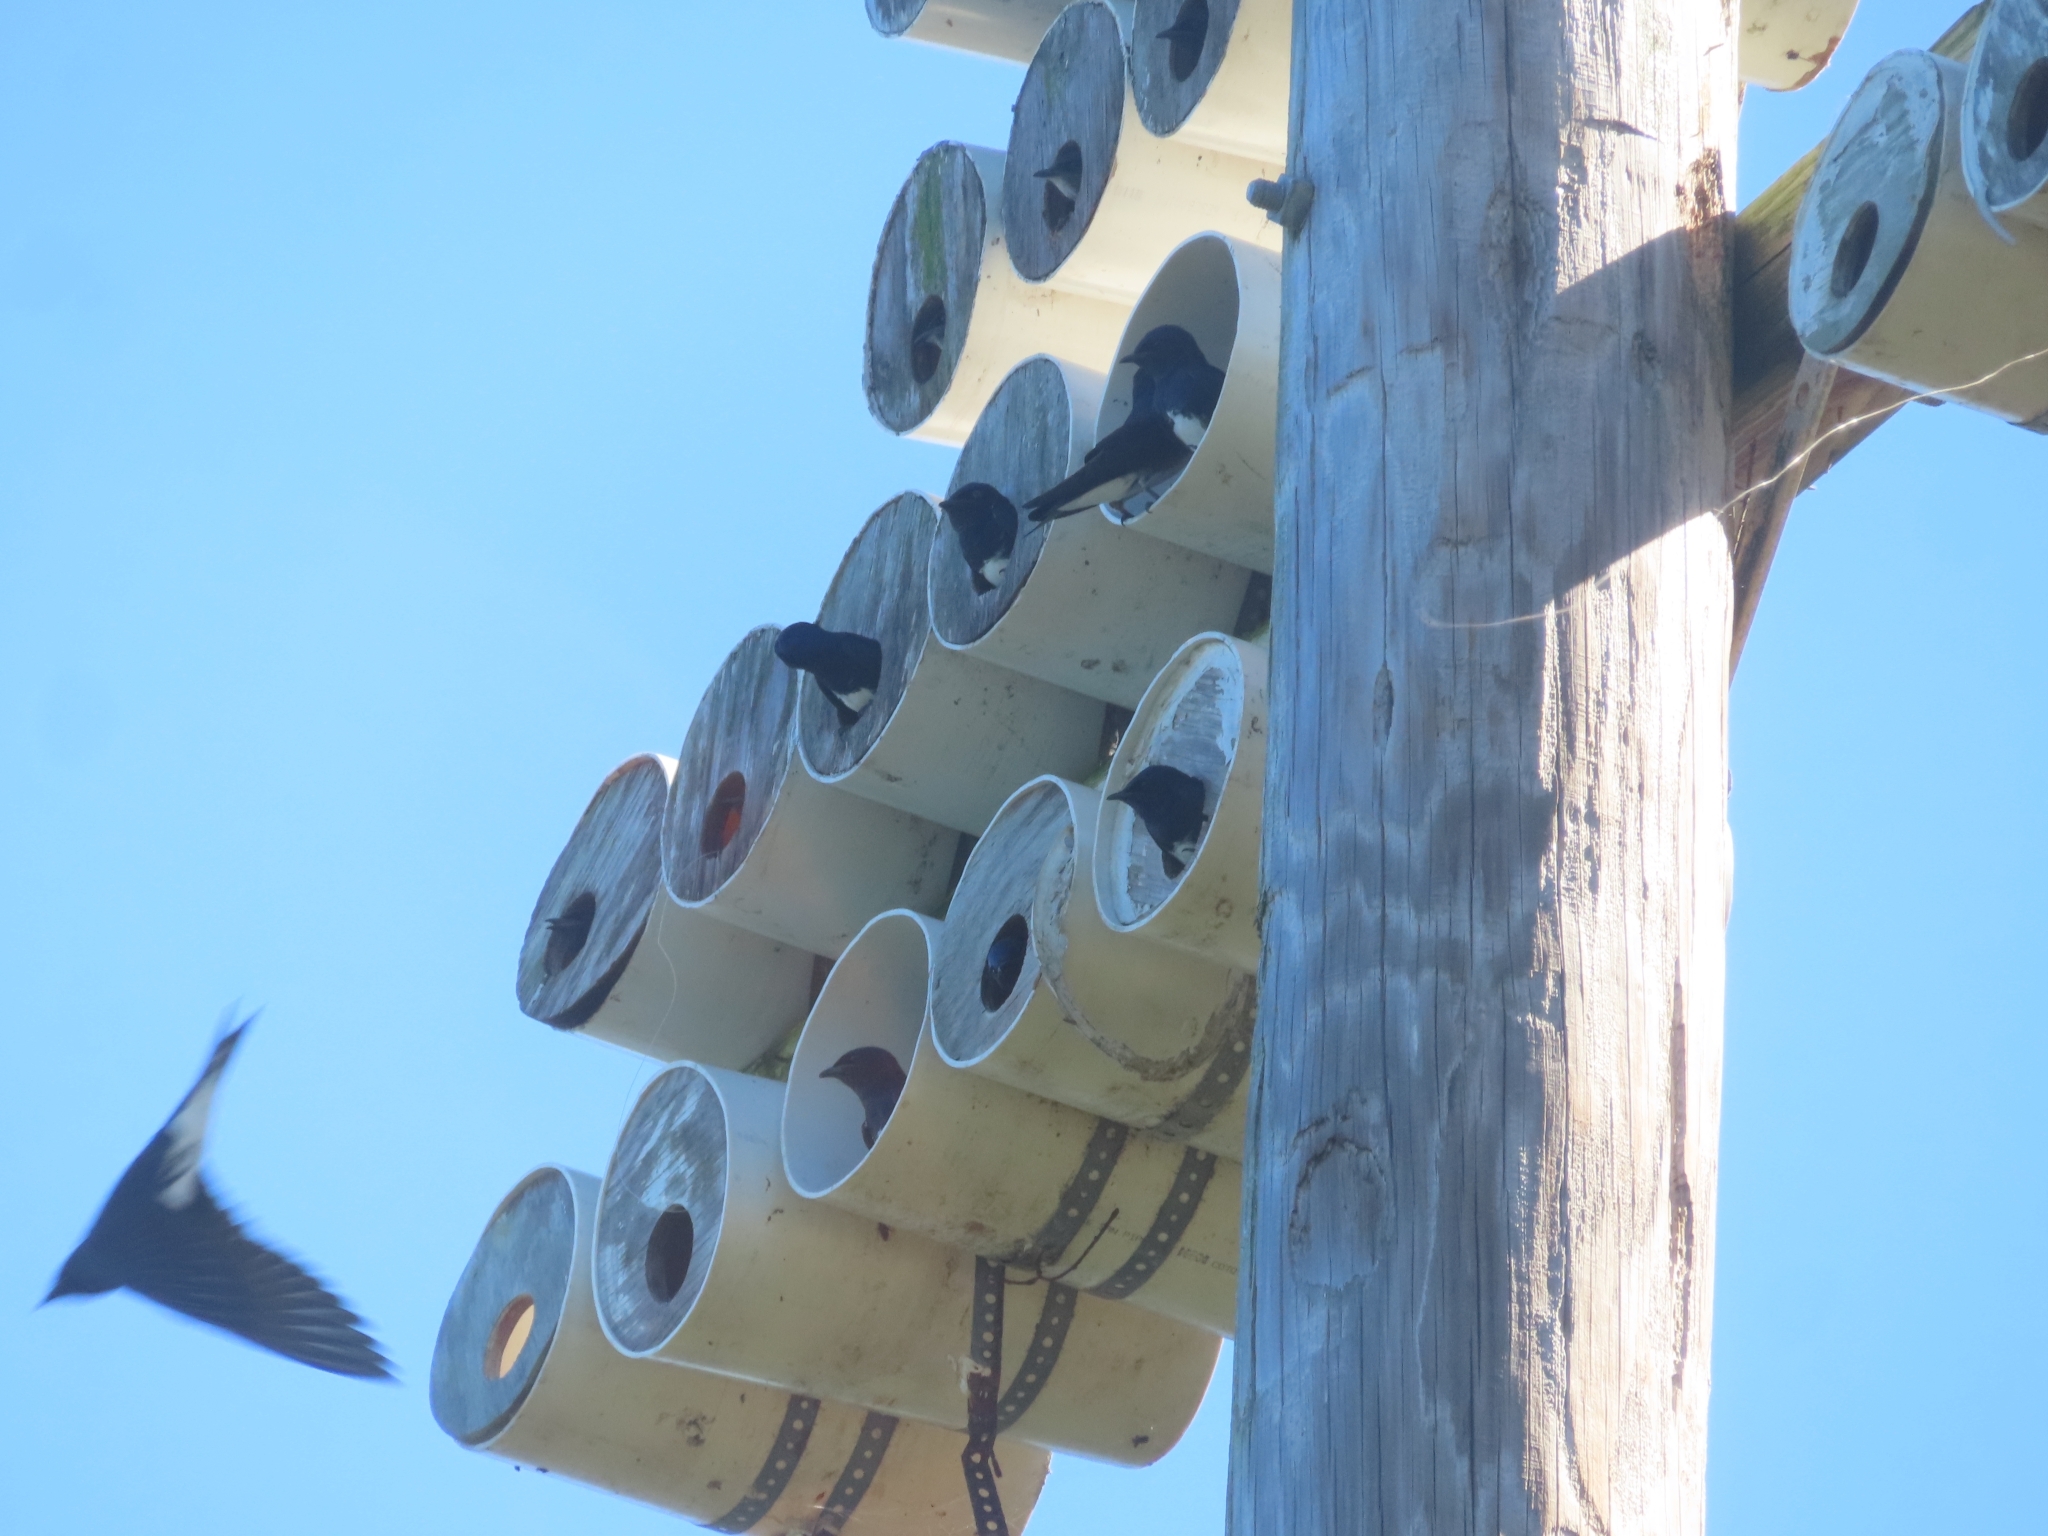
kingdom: Animalia
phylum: Chordata
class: Aves
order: Passeriformes
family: Hirundinidae
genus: Progne
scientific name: Progne dominicensis
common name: Caribbean martin
